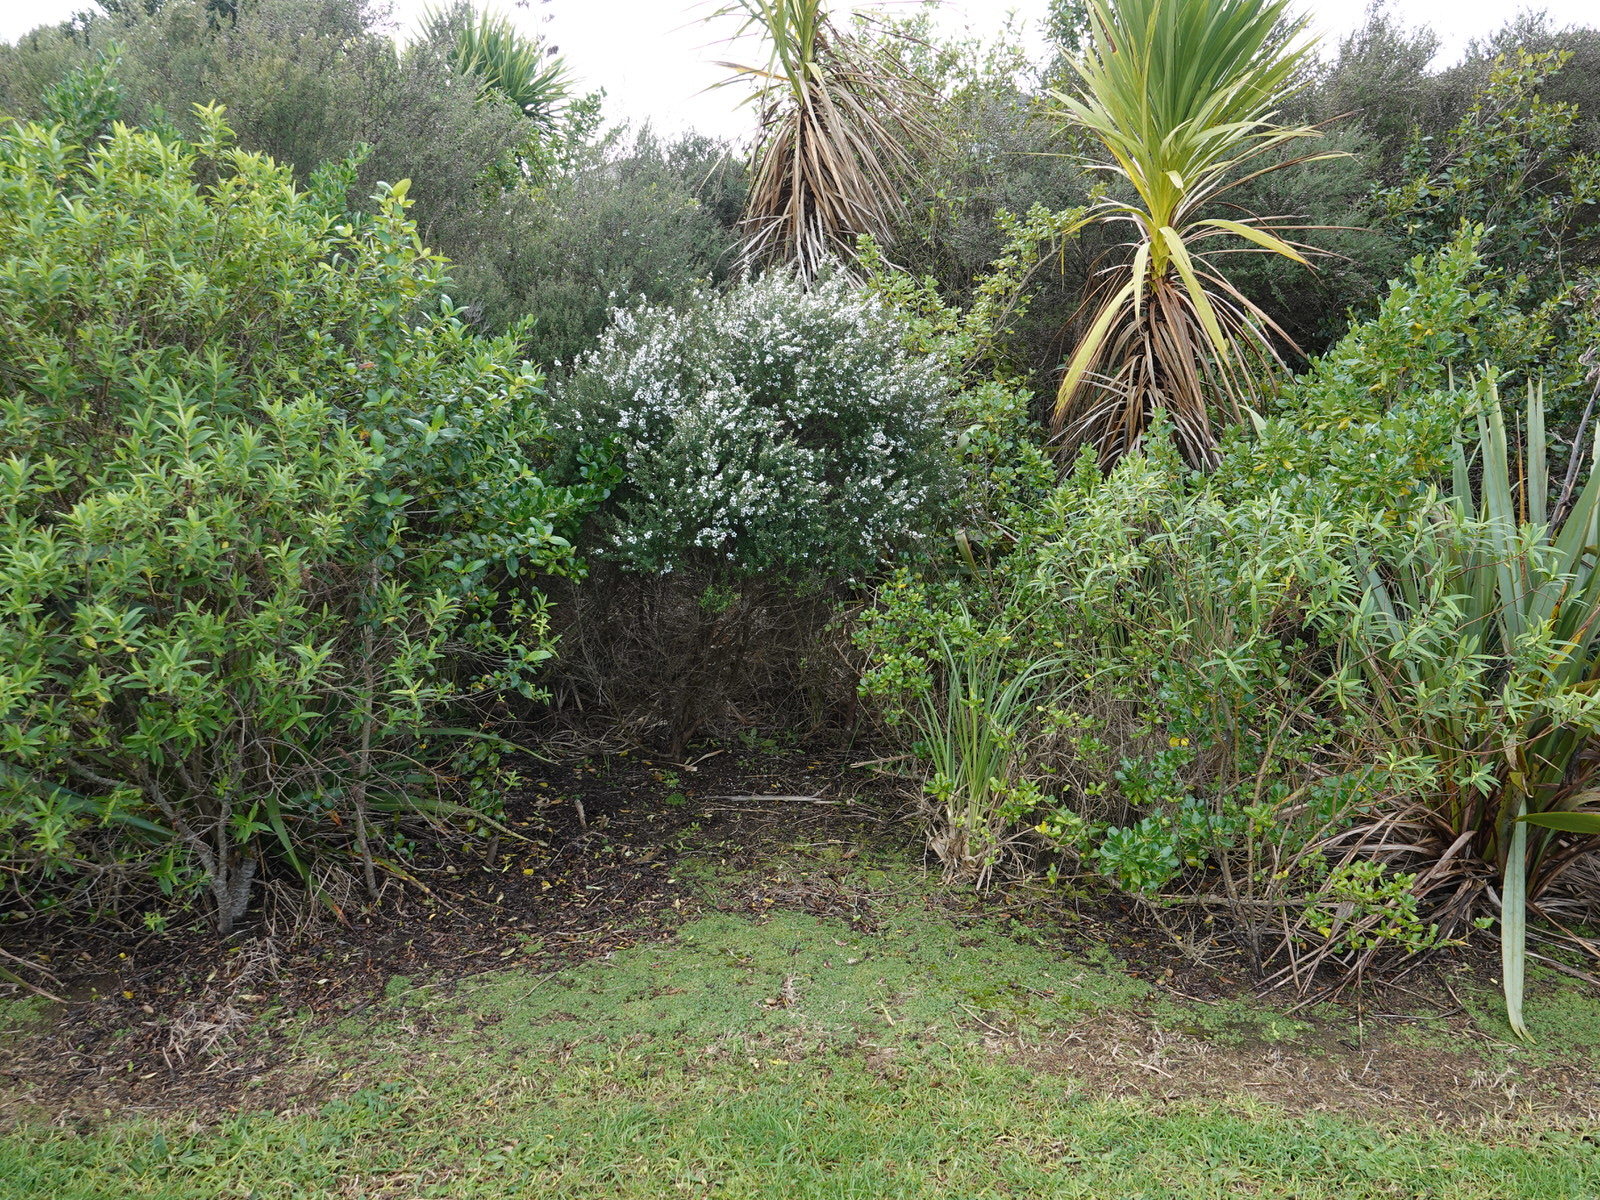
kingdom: Plantae
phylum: Marchantiophyta
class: Marchantiopsida
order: Lunulariales
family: Lunulariaceae
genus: Lunularia
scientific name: Lunularia cruciata
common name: Crescent-cup liverwort
